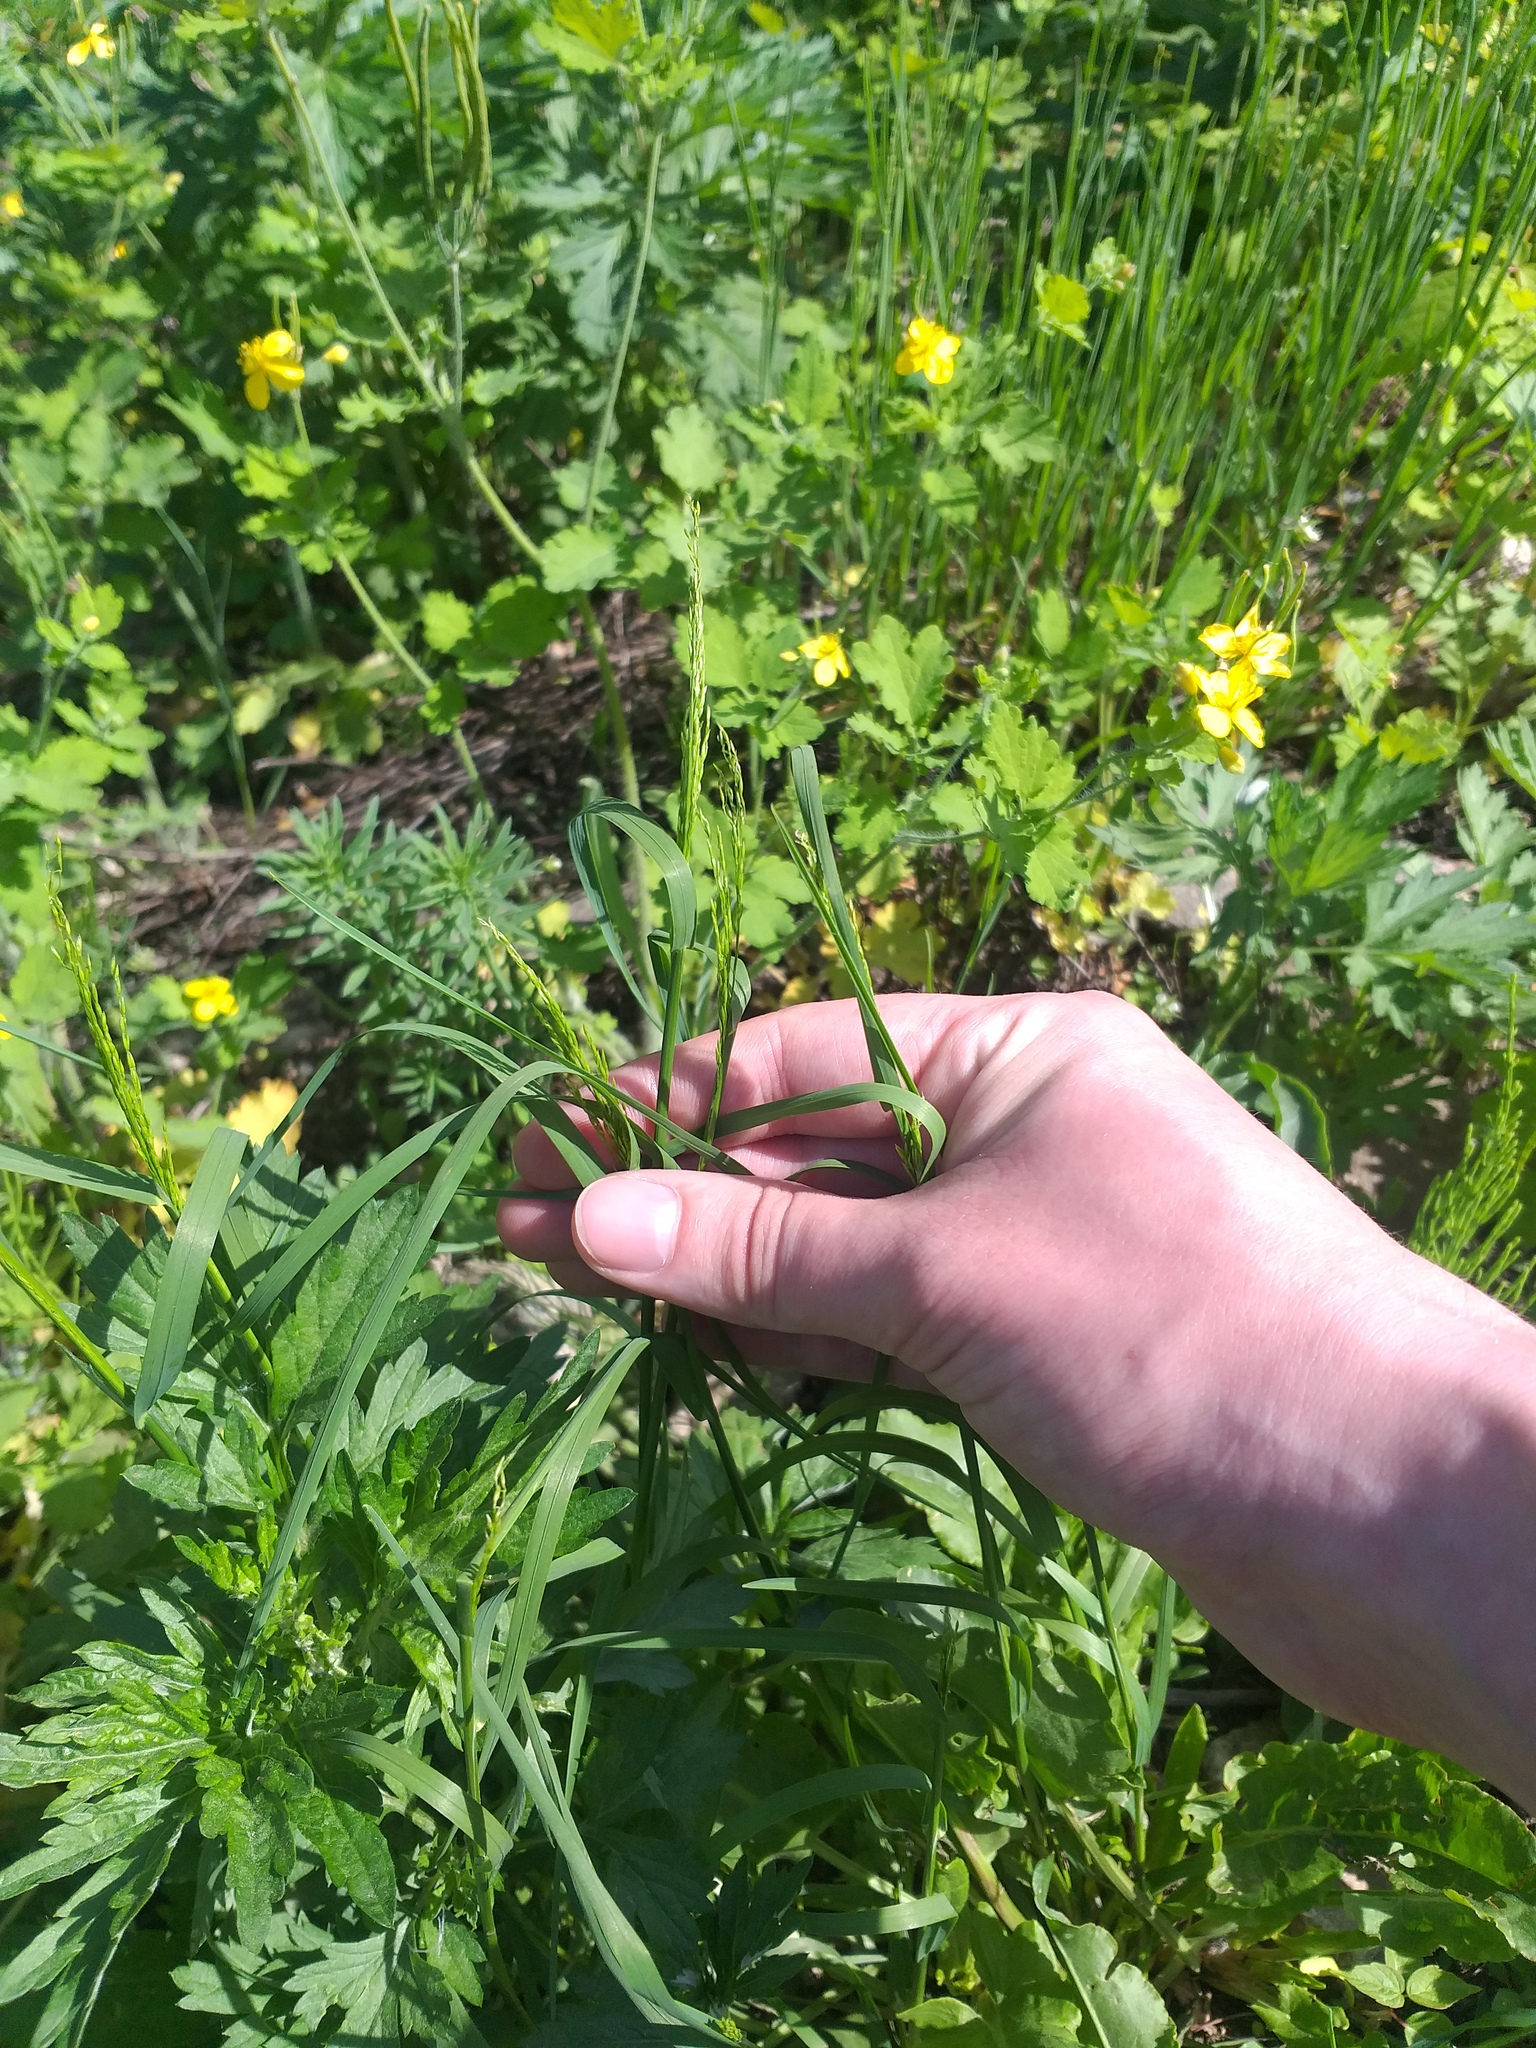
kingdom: Plantae
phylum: Tracheophyta
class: Liliopsida
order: Poales
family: Poaceae
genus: Poa
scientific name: Poa palustris
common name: Swamp meadow-grass
